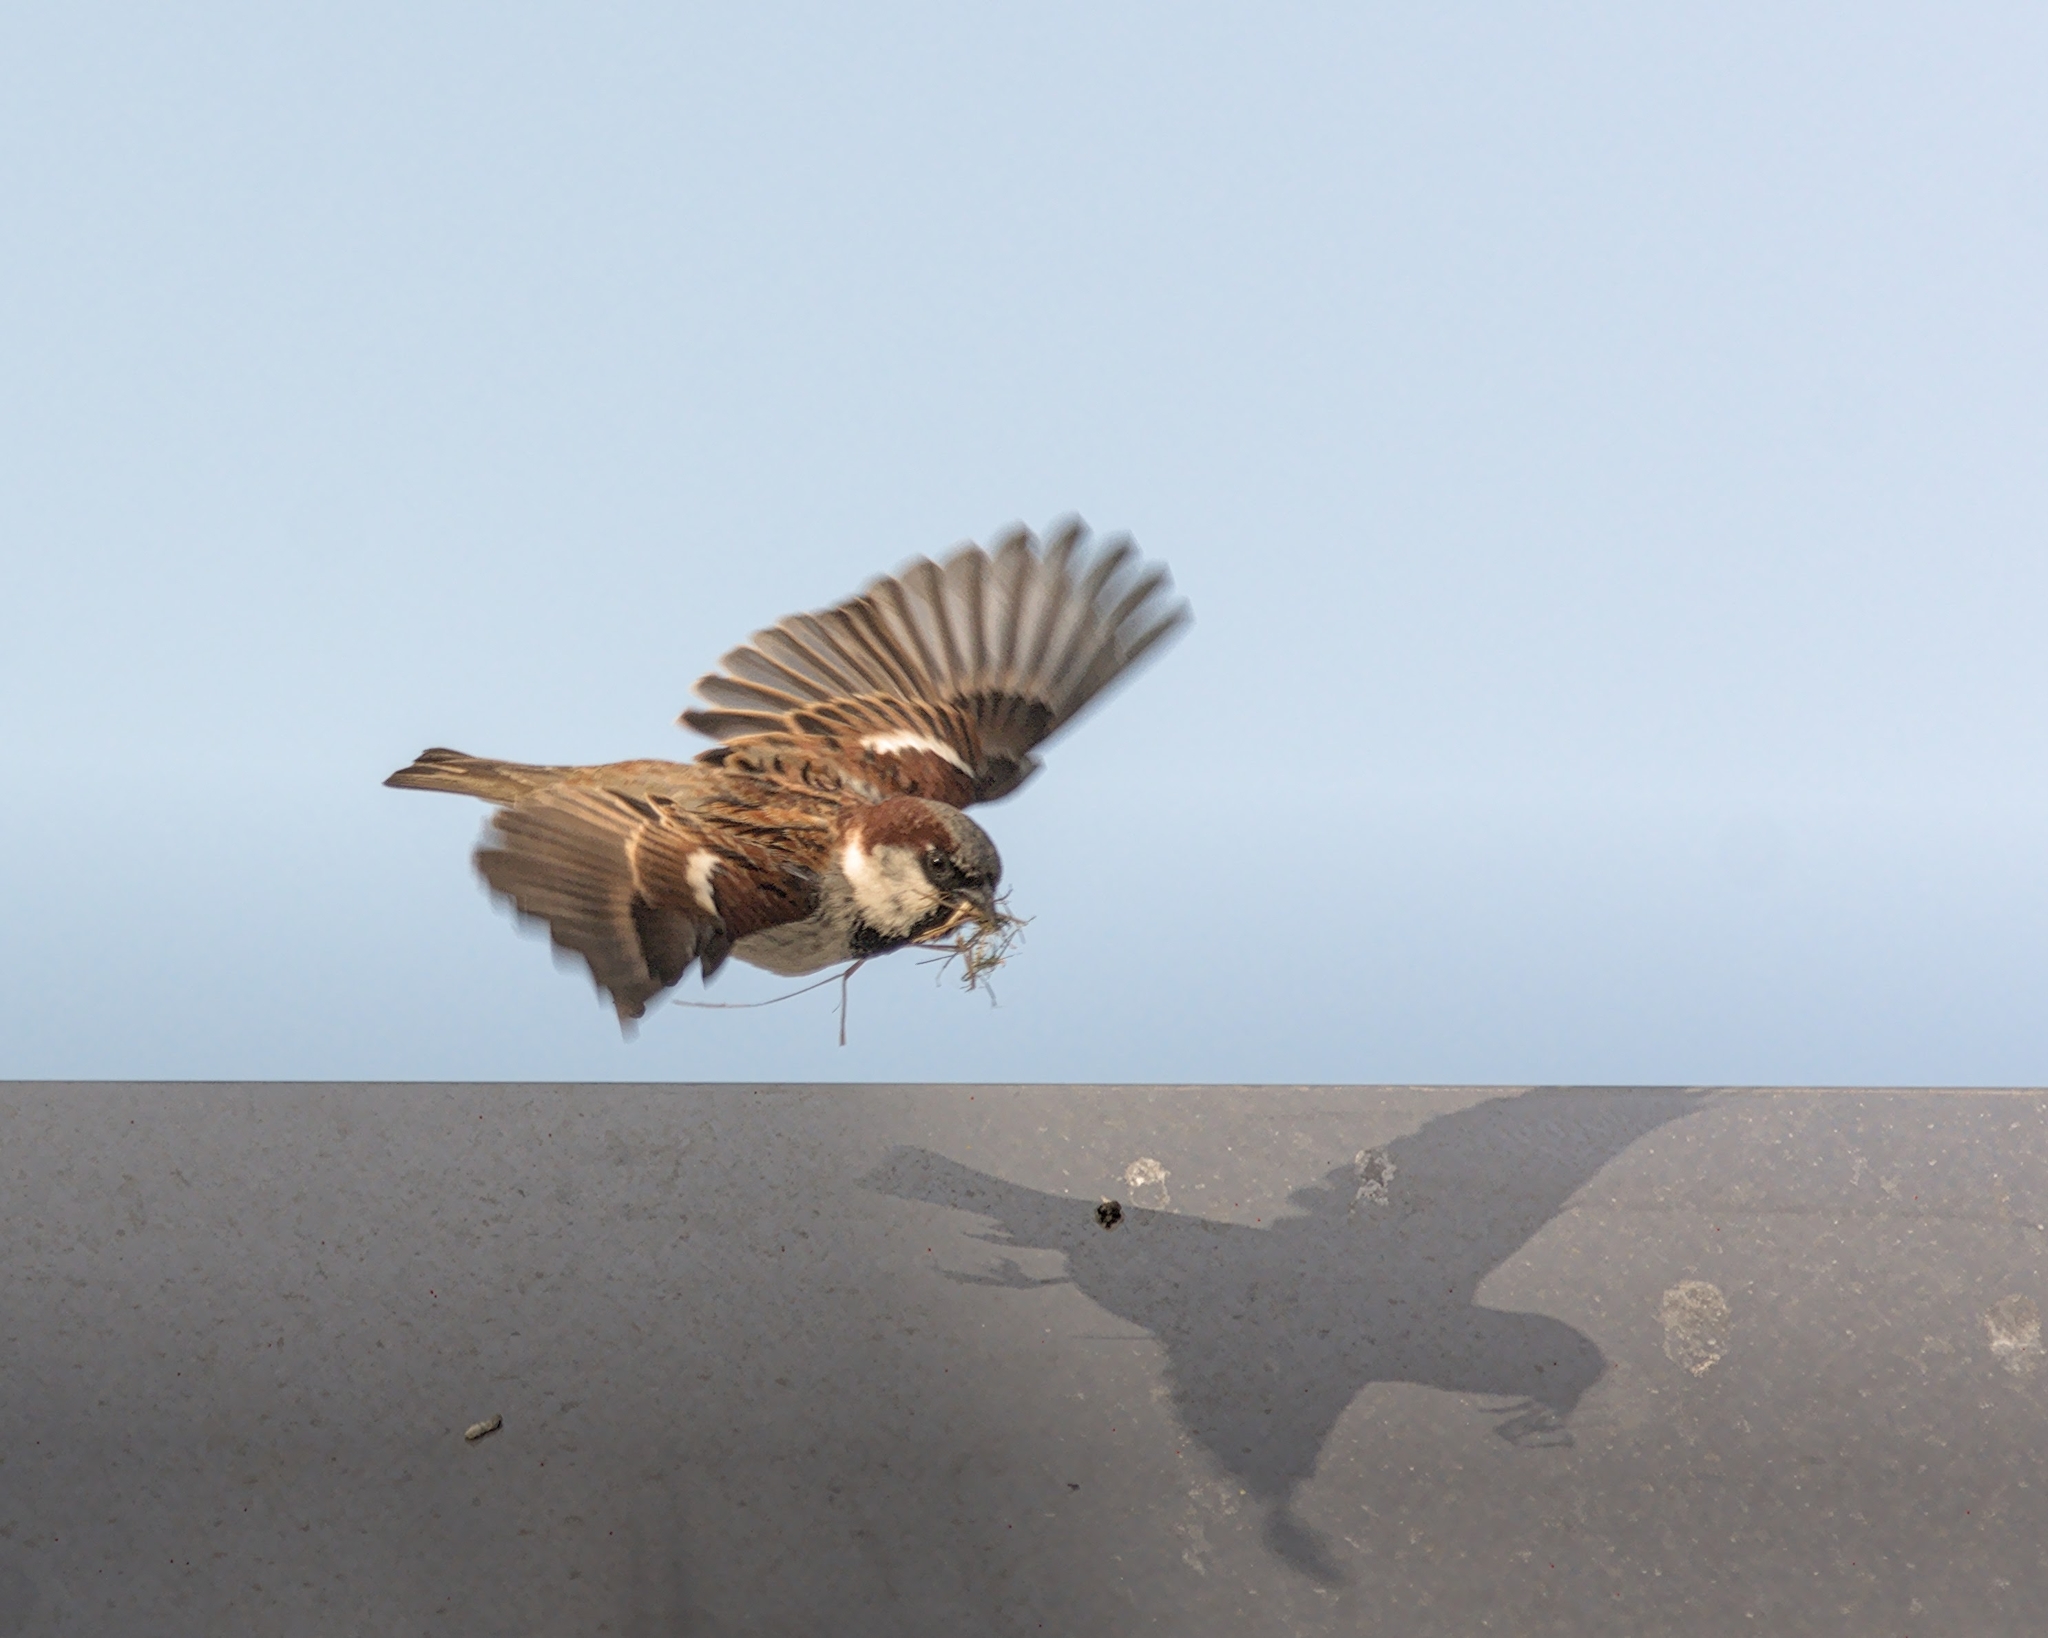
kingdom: Animalia
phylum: Chordata
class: Aves
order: Passeriformes
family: Passeridae
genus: Passer
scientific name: Passer domesticus
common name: House sparrow
